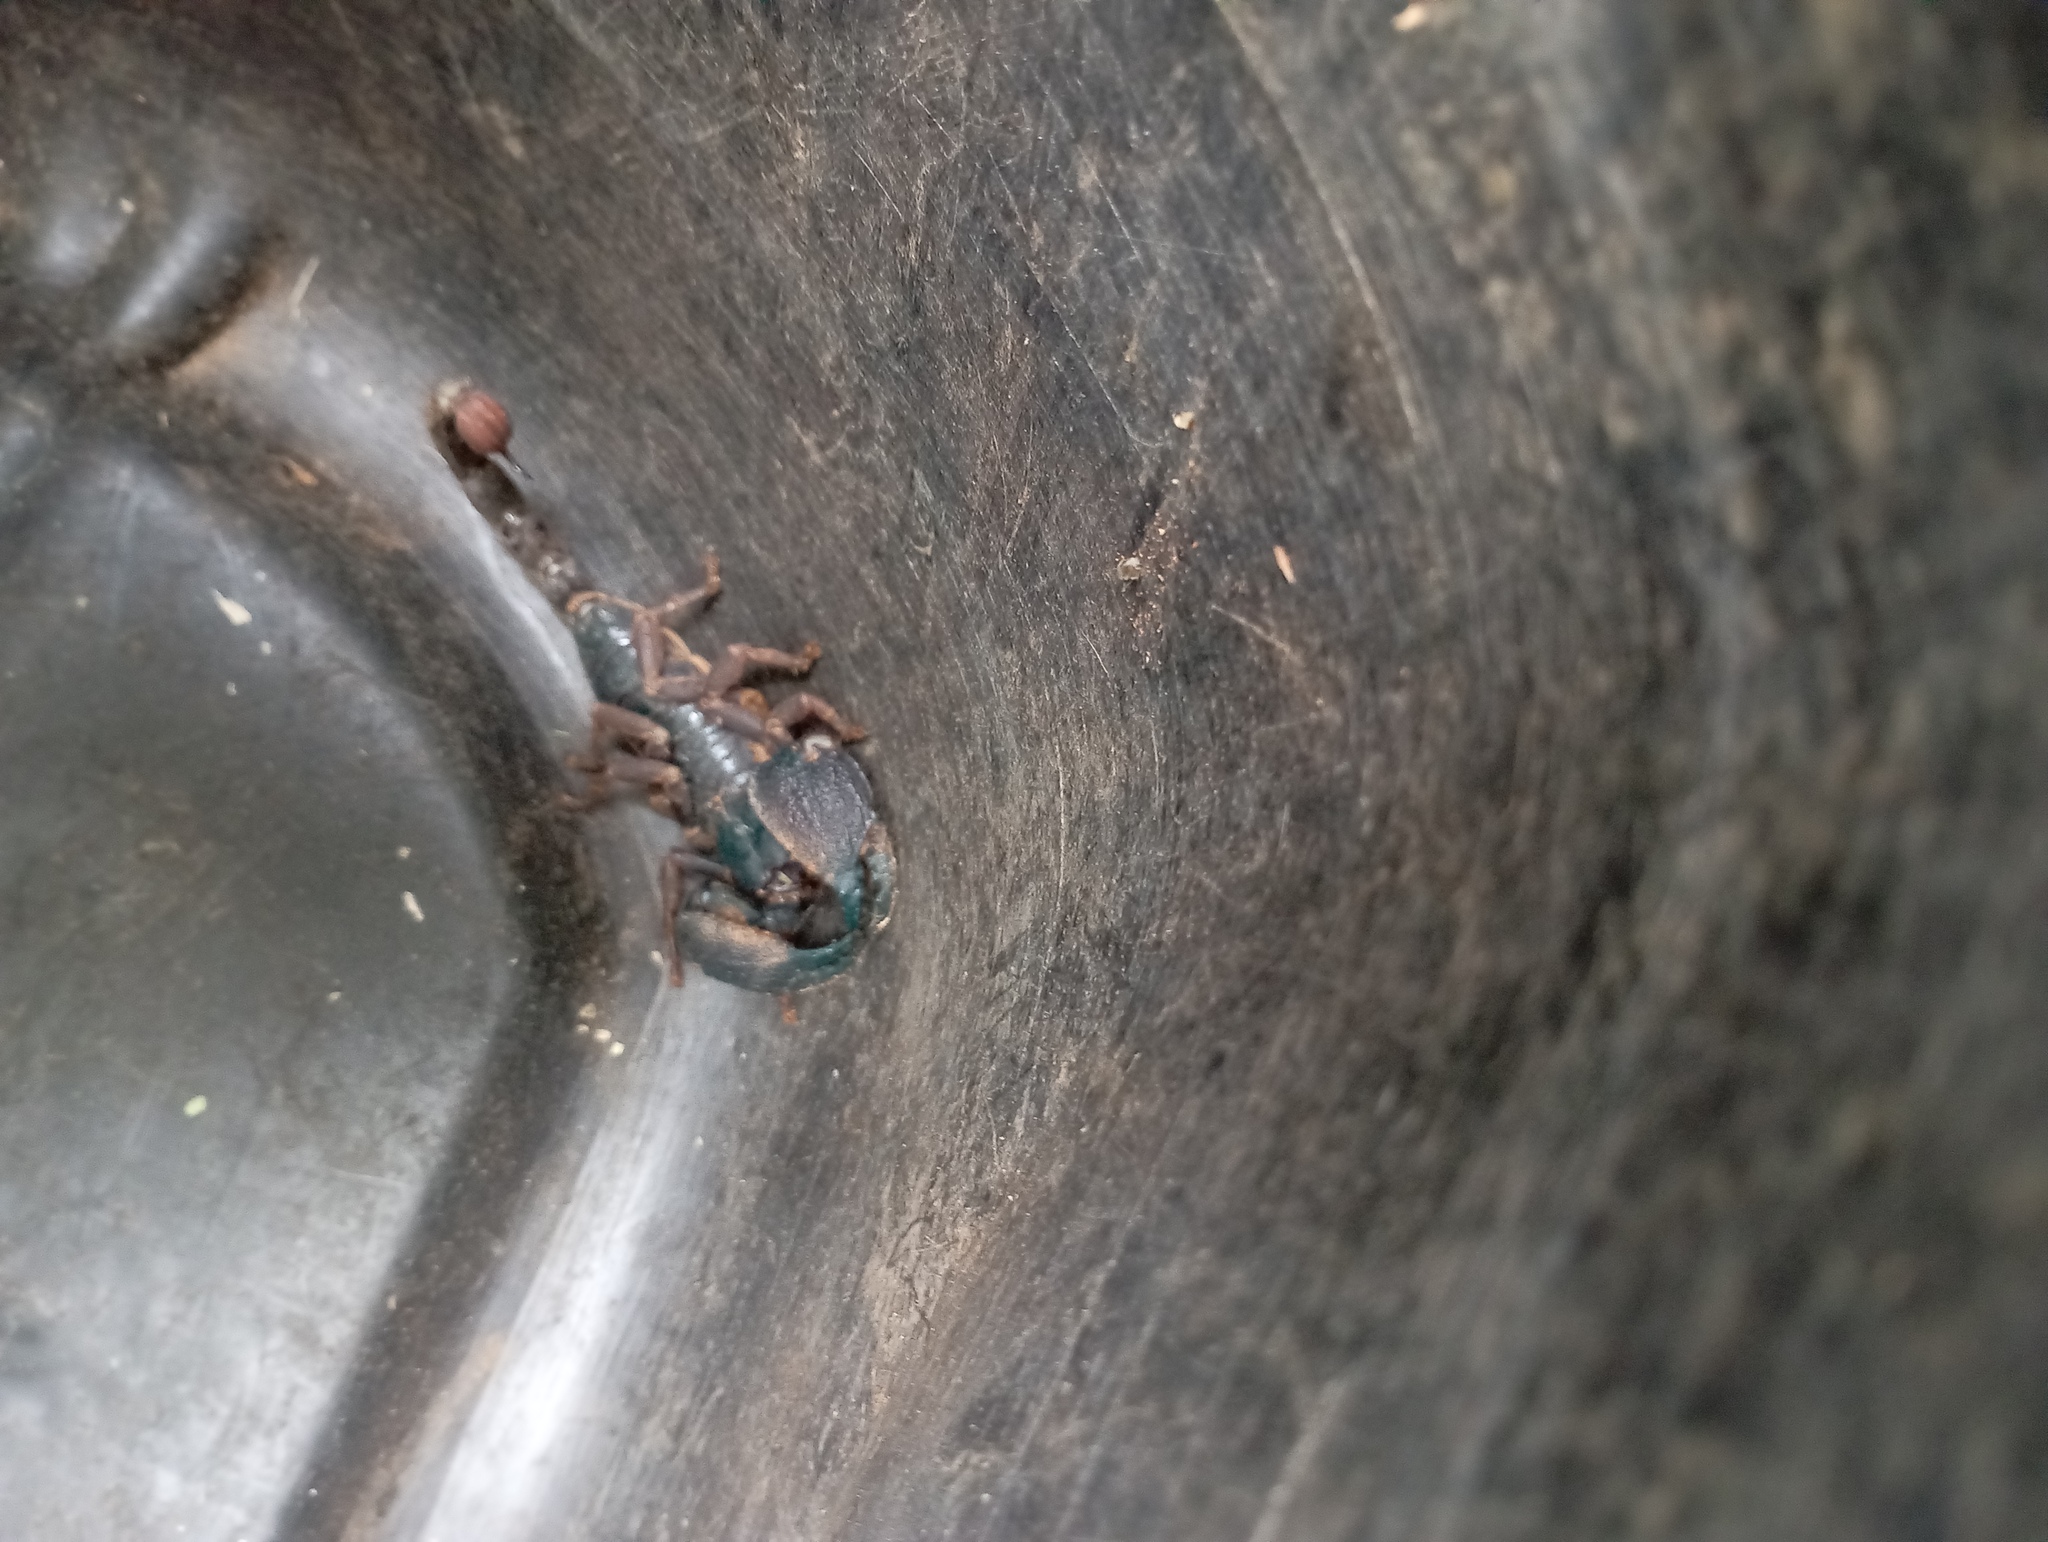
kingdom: Animalia
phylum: Arthropoda
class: Arachnida
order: Scorpiones
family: Scorpionidae
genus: Gigantometrus
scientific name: Gigantometrus swammerdami
